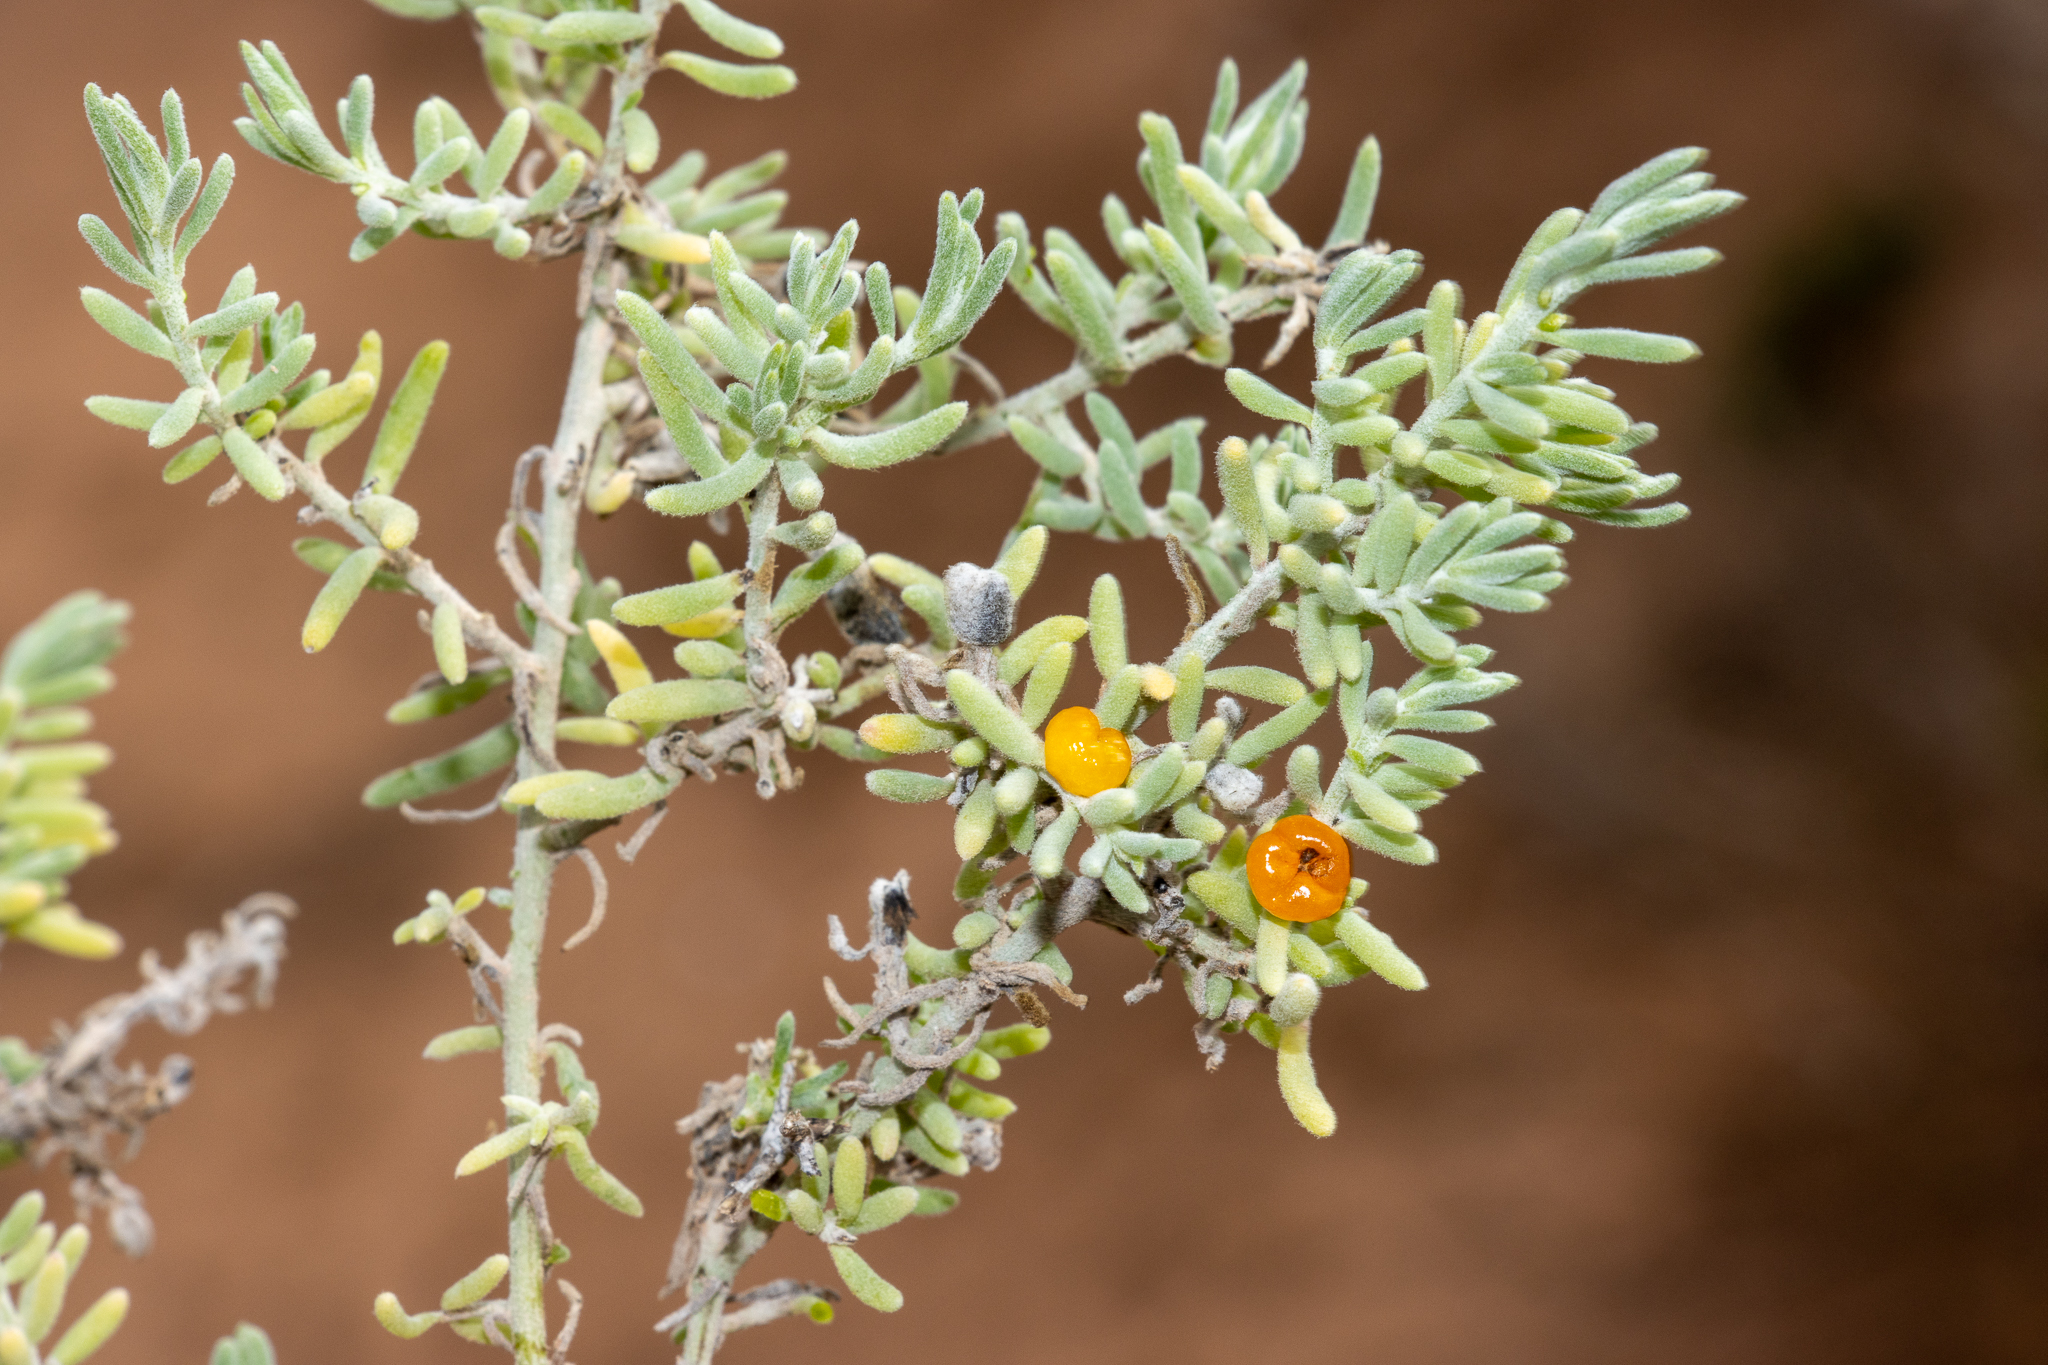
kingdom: Plantae
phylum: Tracheophyta
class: Magnoliopsida
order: Caryophyllales
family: Amaranthaceae
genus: Enchylaena
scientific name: Enchylaena tomentosa
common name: Ruby saltbush
